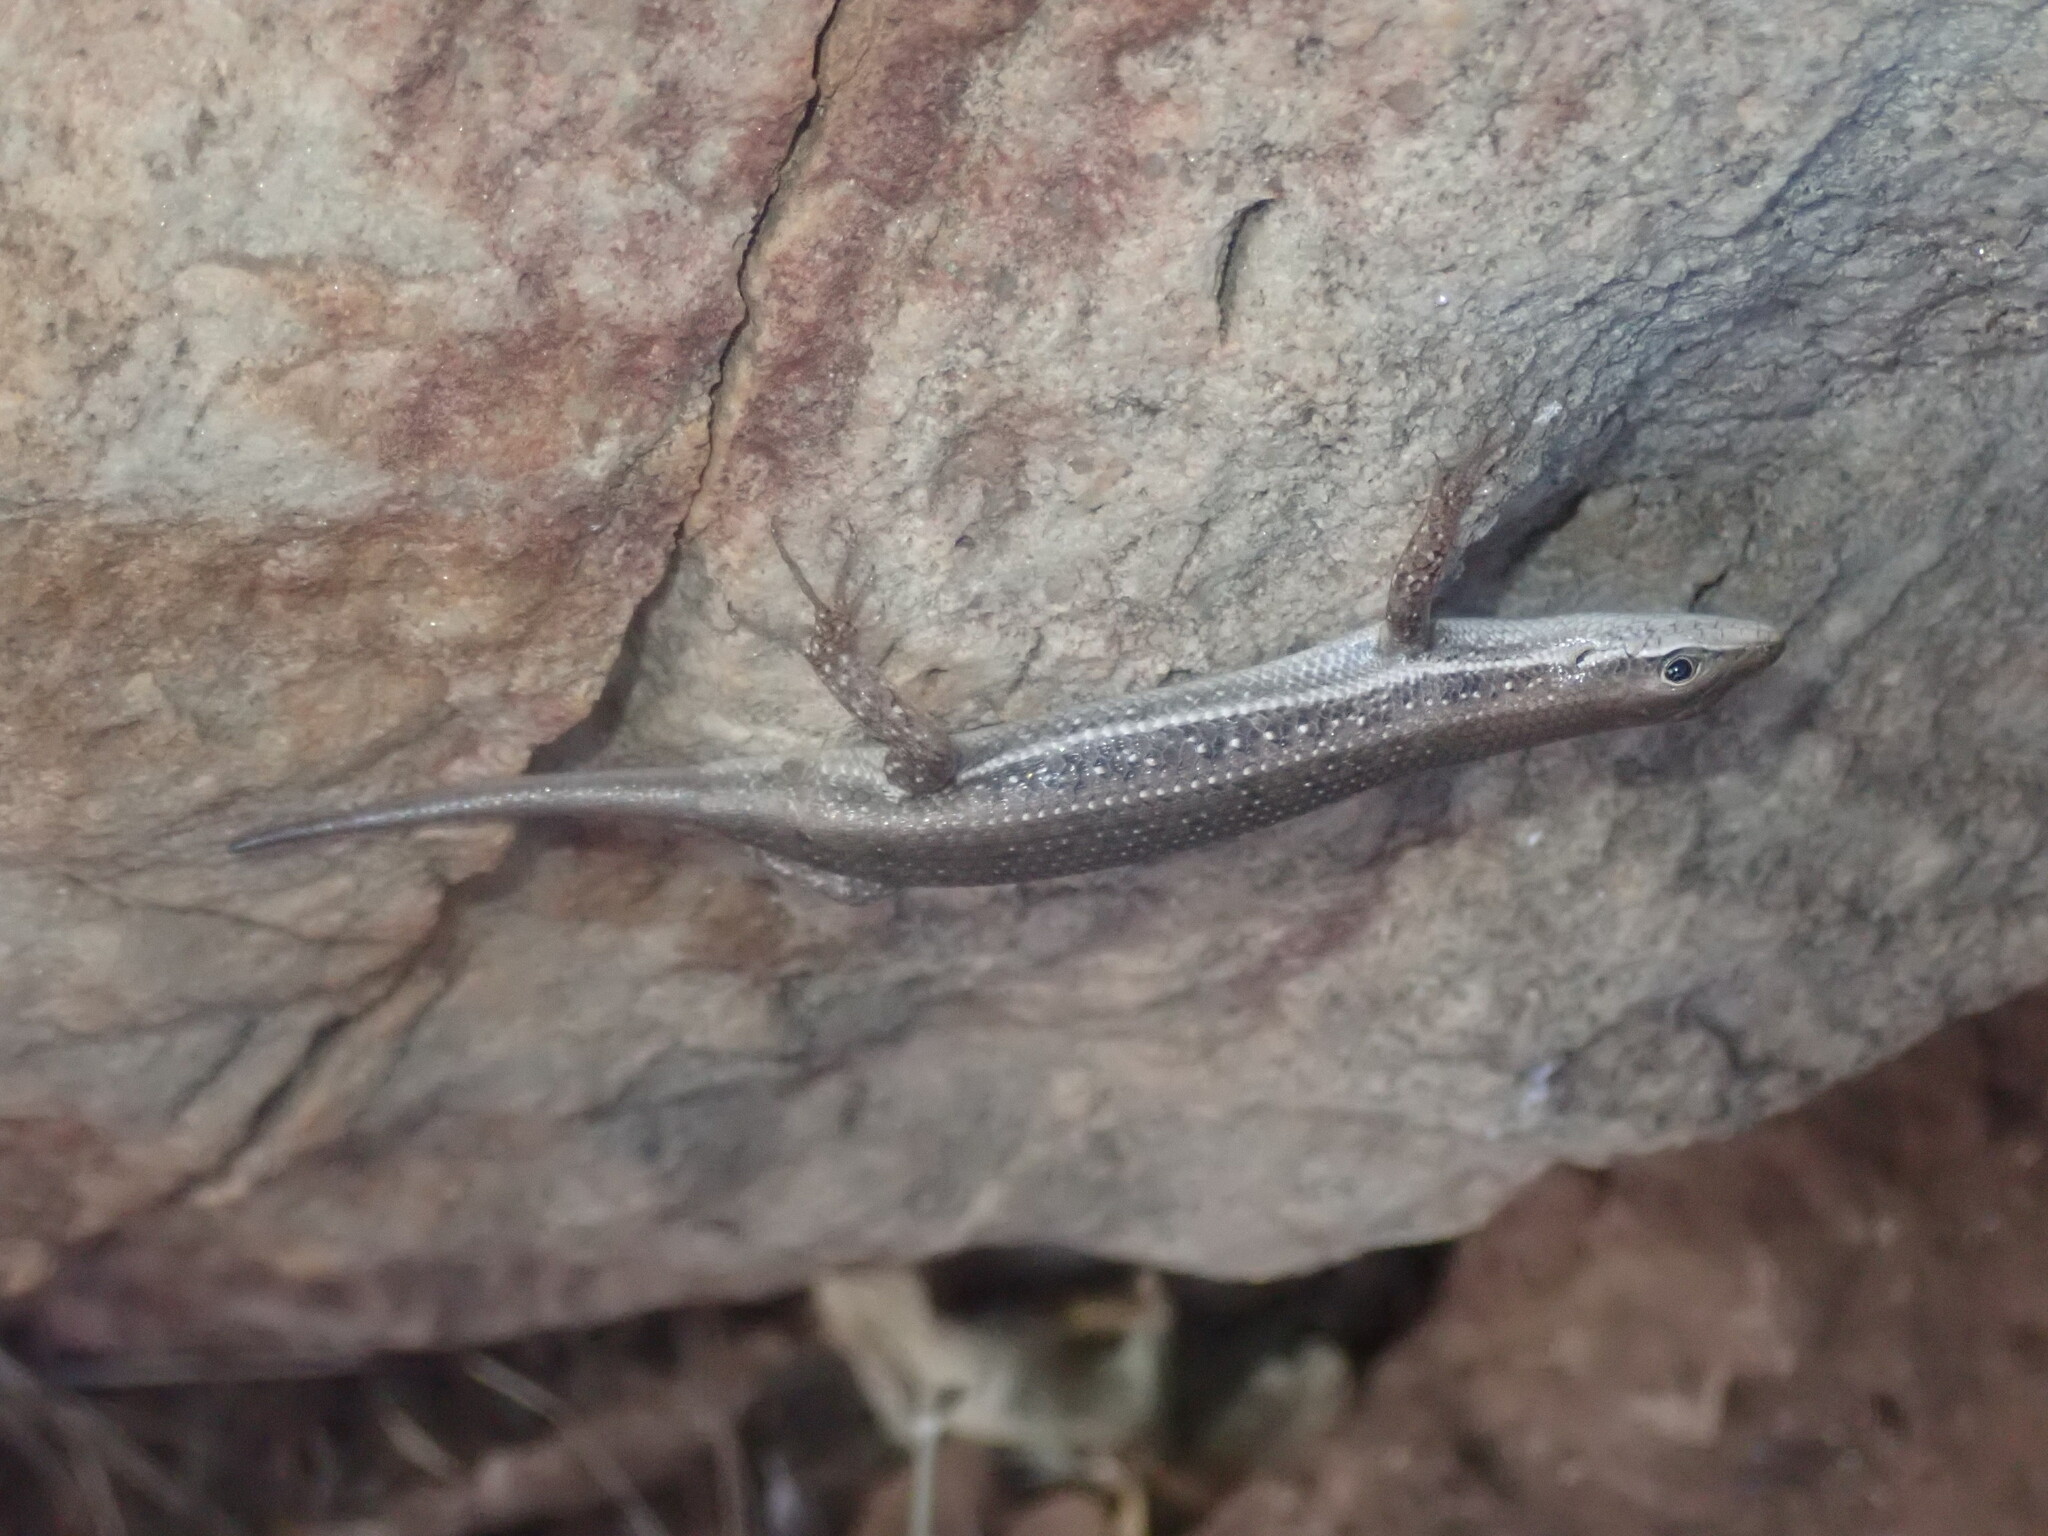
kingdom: Animalia
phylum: Chordata
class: Squamata
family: Scincidae
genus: Trachylepis
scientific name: Trachylepis damarana
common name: Damara skink
